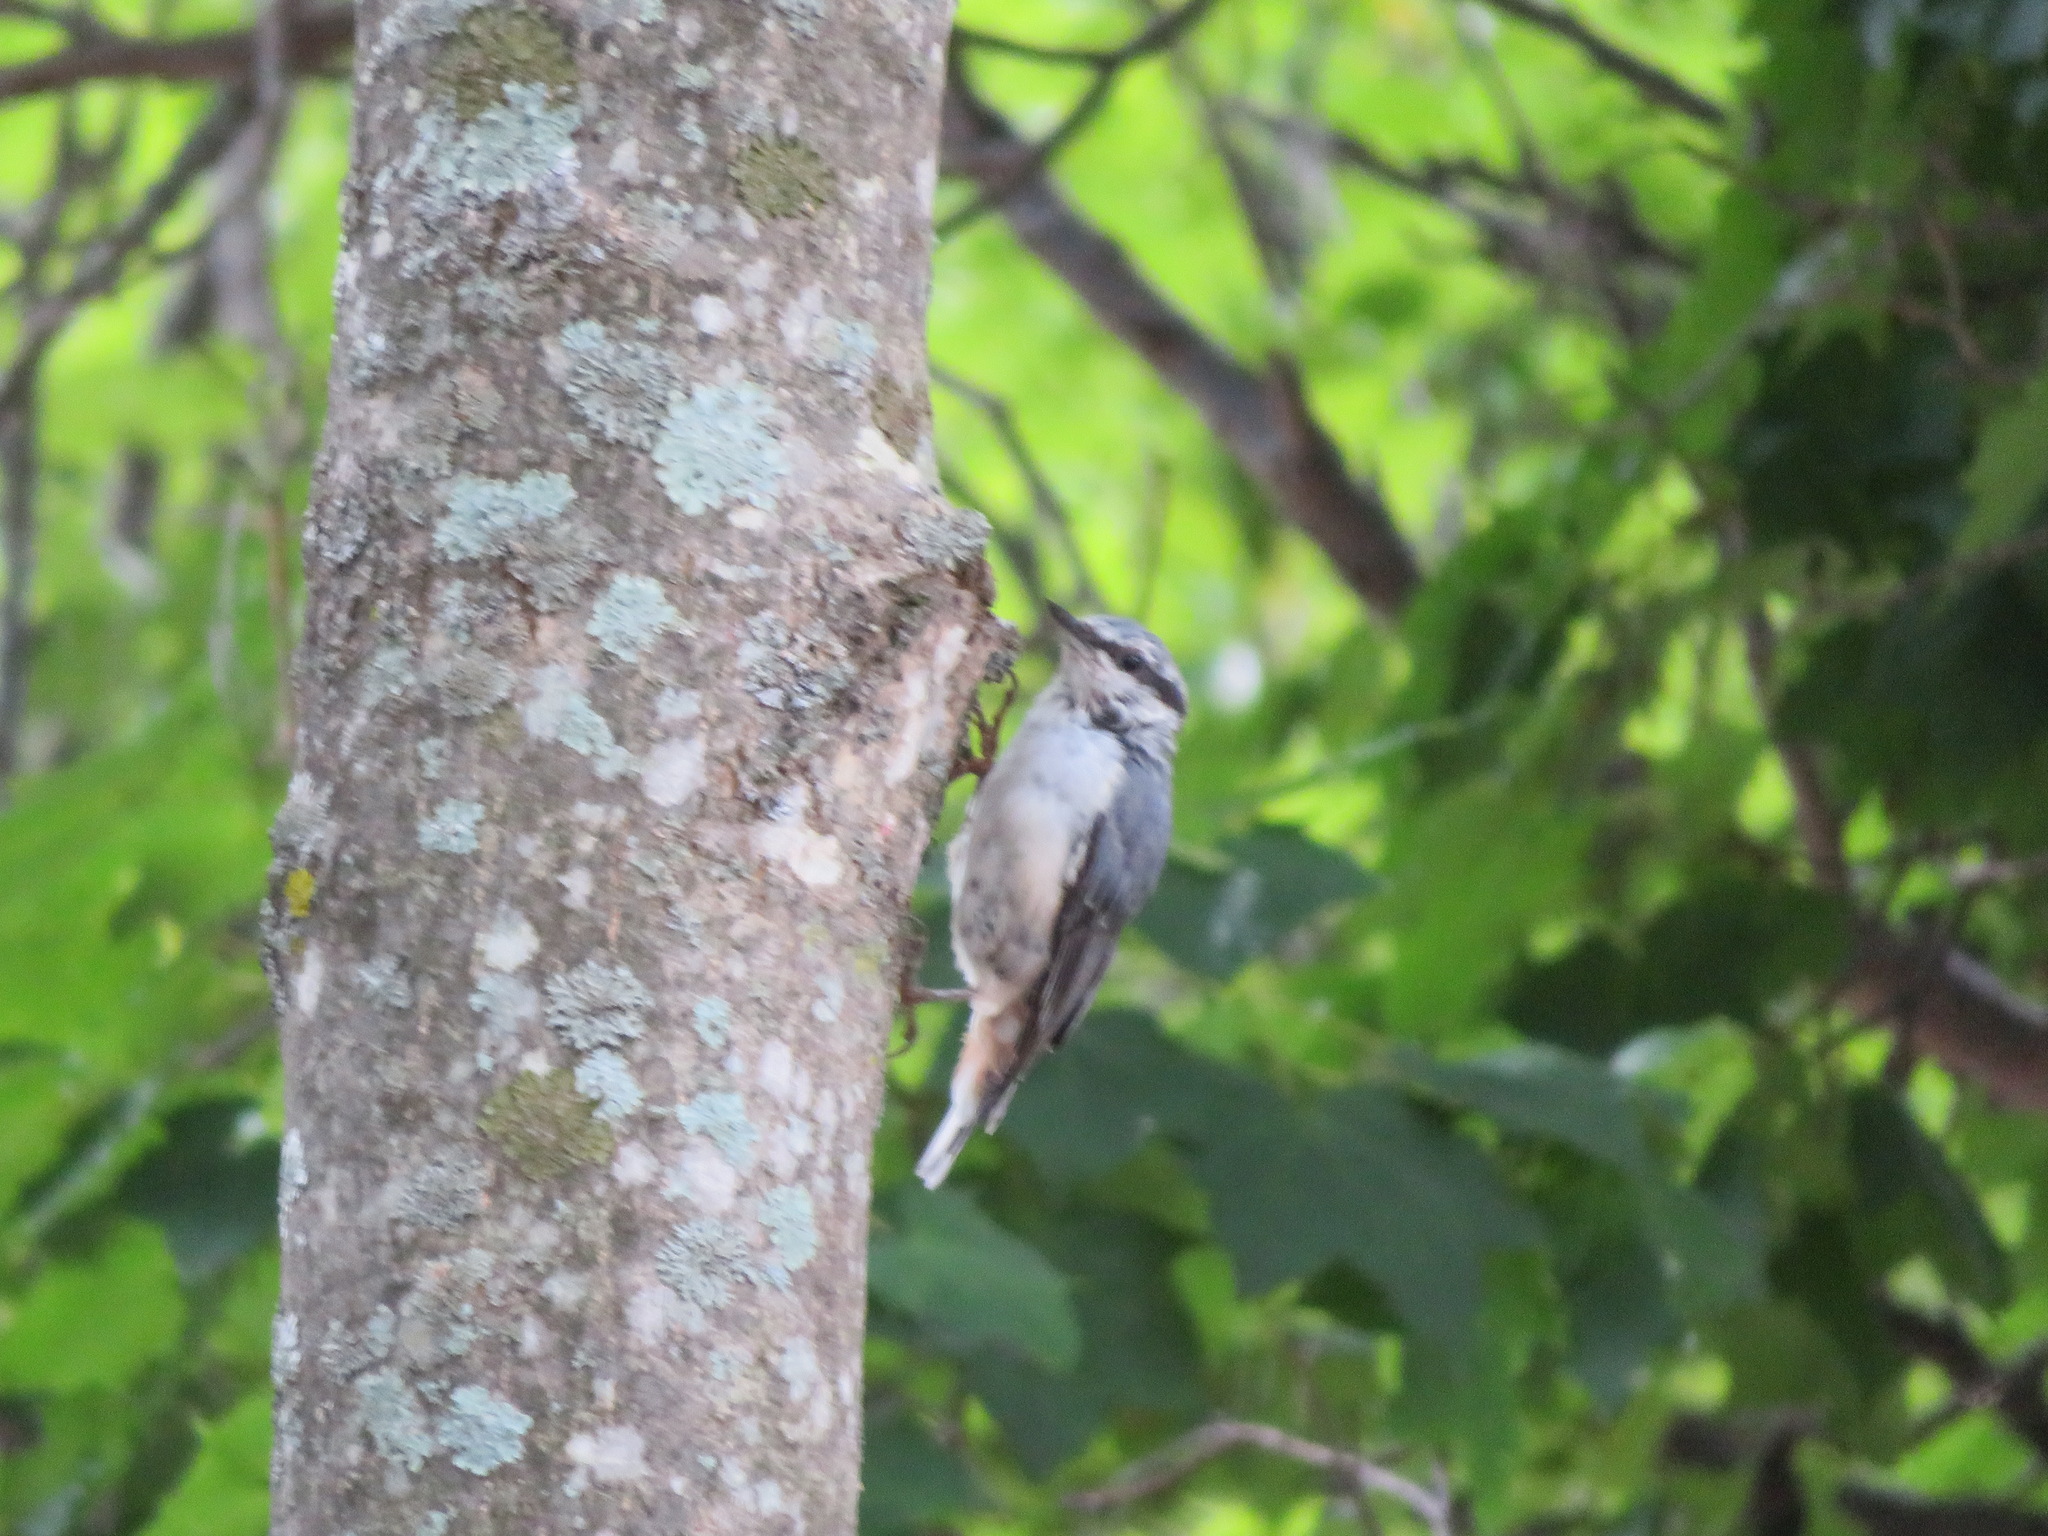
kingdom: Animalia
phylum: Chordata
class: Aves
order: Passeriformes
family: Sittidae
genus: Sitta
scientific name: Sitta europaea
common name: Eurasian nuthatch
